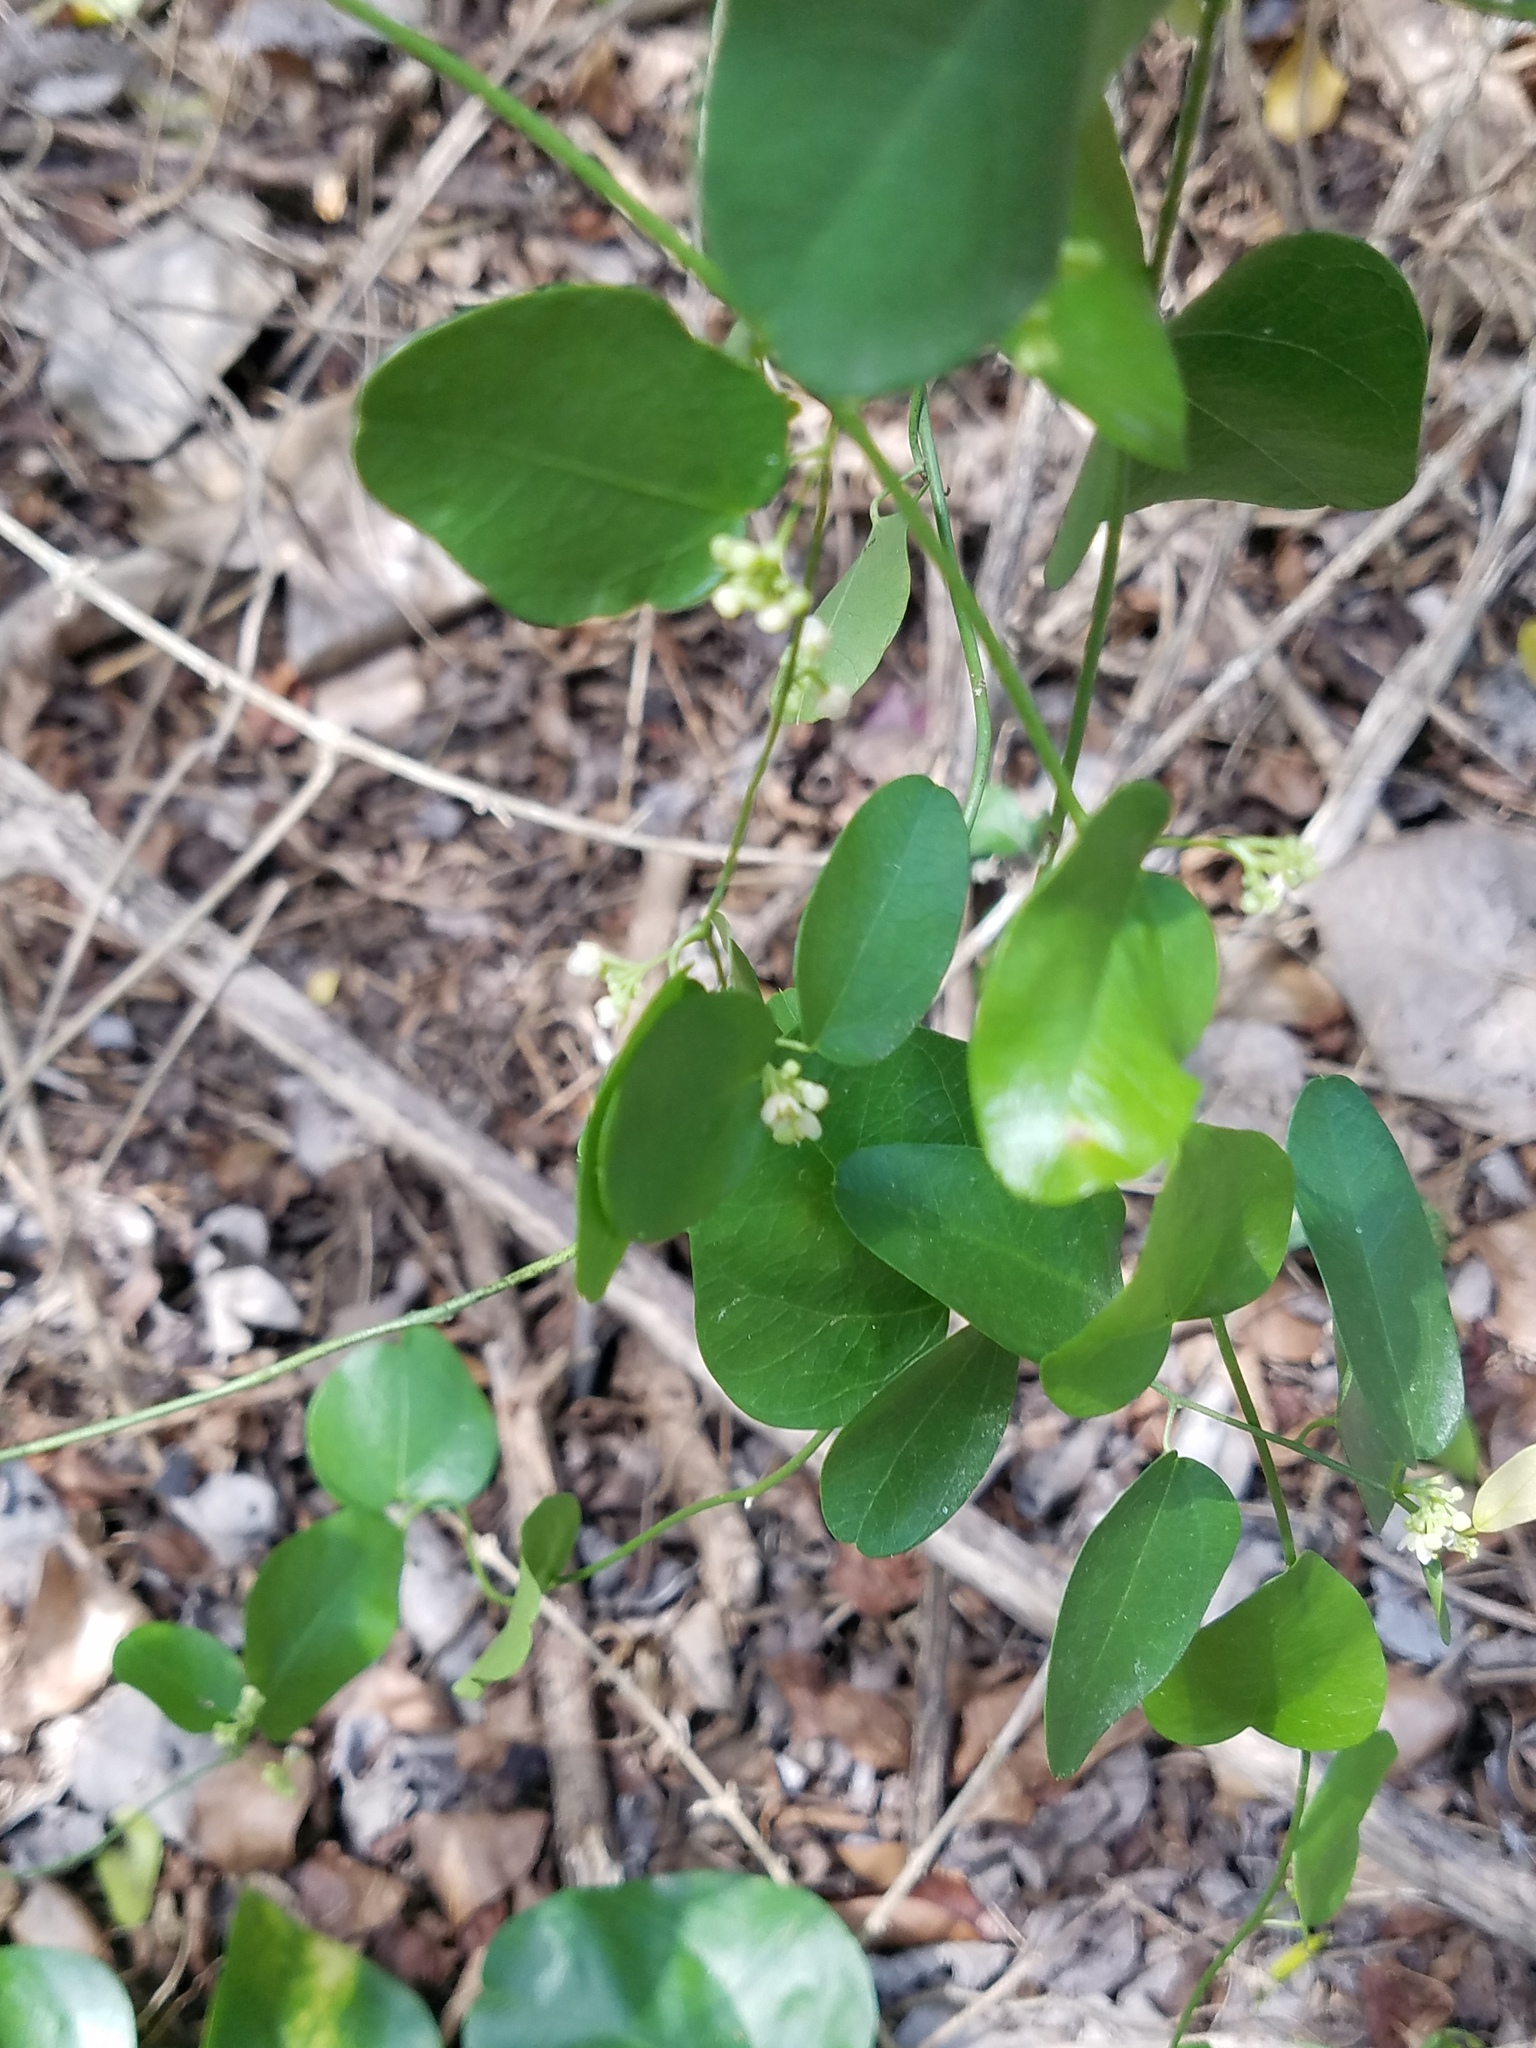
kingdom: Plantae
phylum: Tracheophyta
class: Magnoliopsida
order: Ranunculales
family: Menispermaceae
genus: Cocculus
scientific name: Cocculus diversifolius
